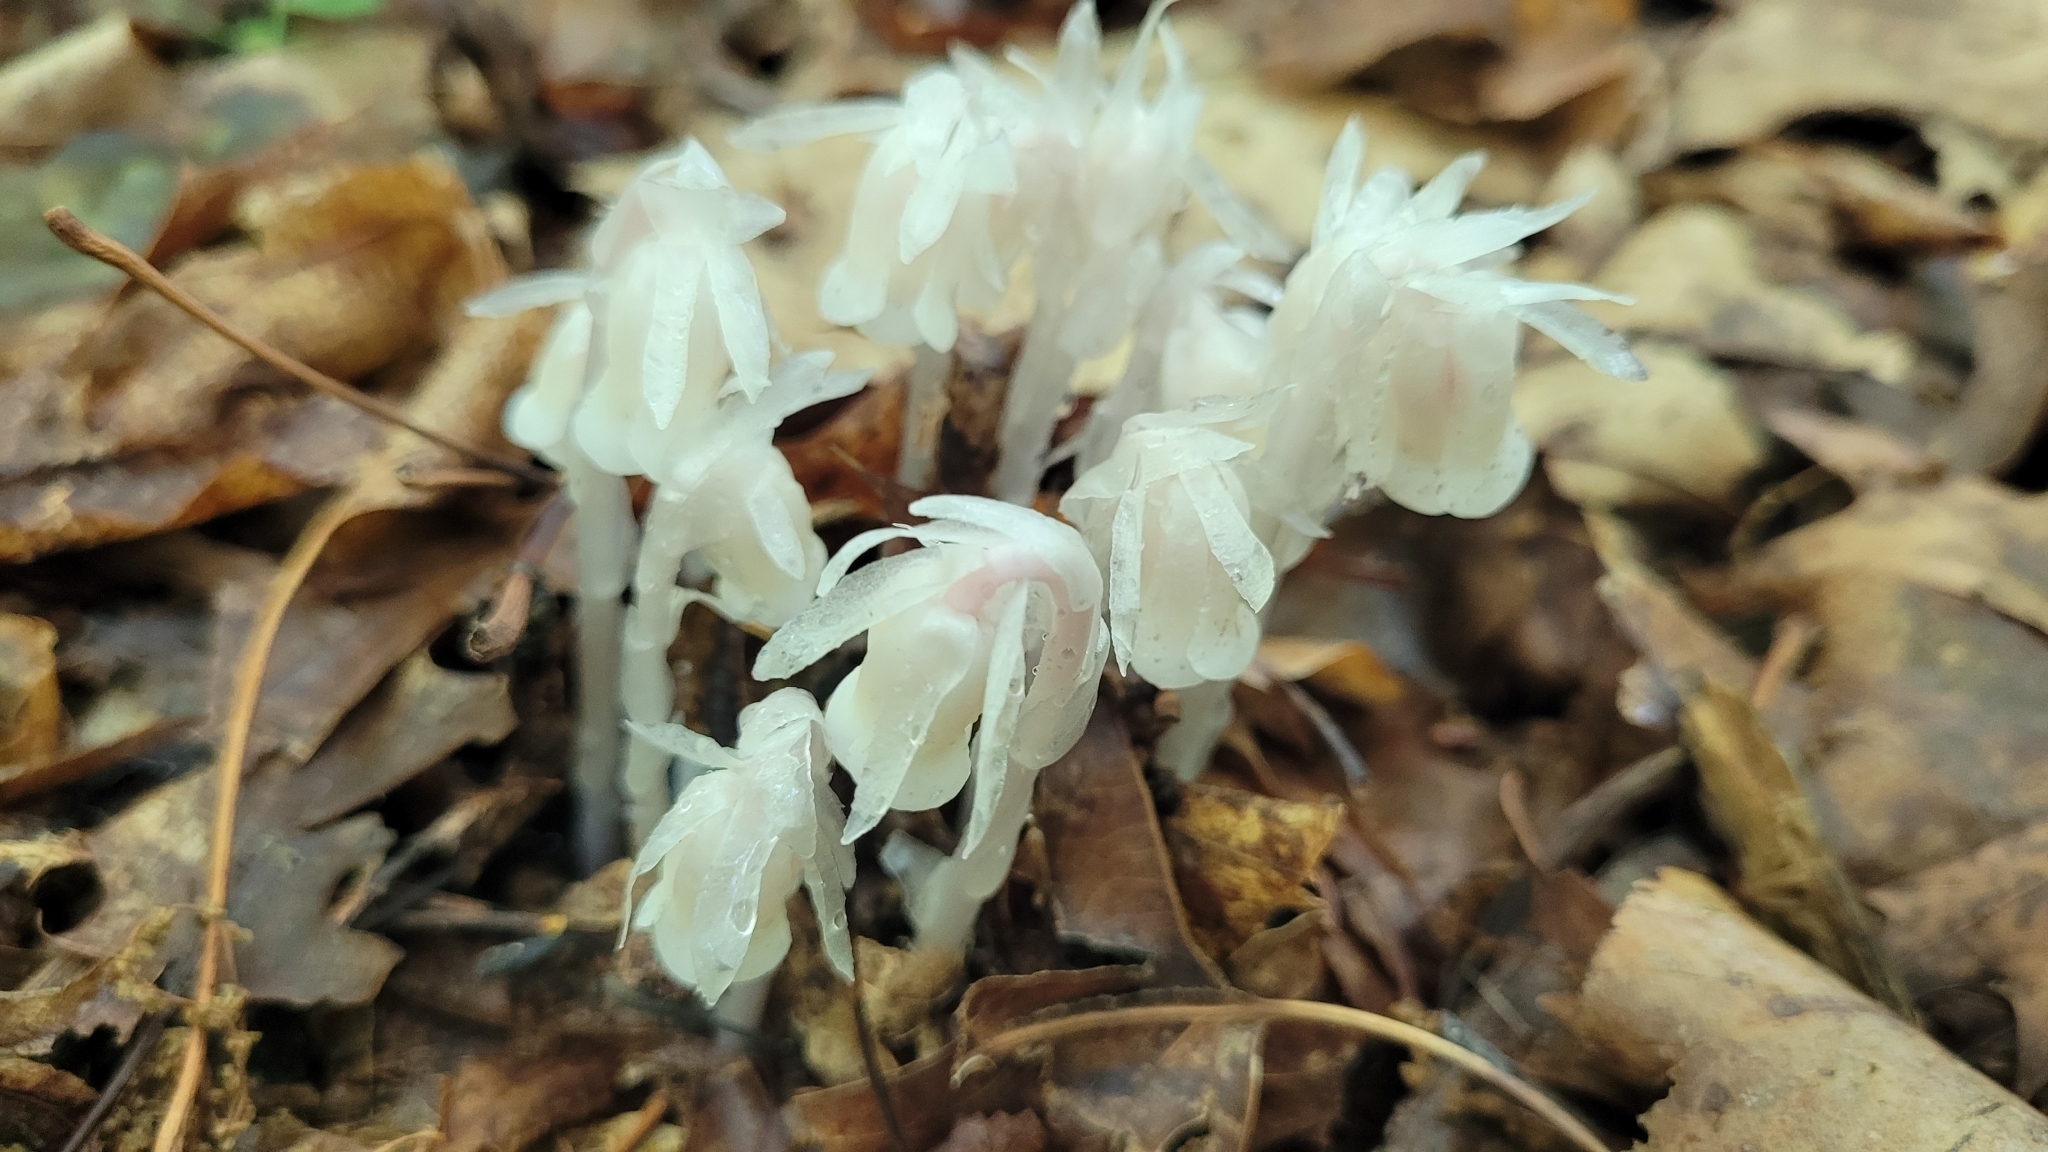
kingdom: Plantae
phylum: Tracheophyta
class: Magnoliopsida
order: Ericales
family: Ericaceae
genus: Monotropa
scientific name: Monotropa uniflora
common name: Convulsion root
